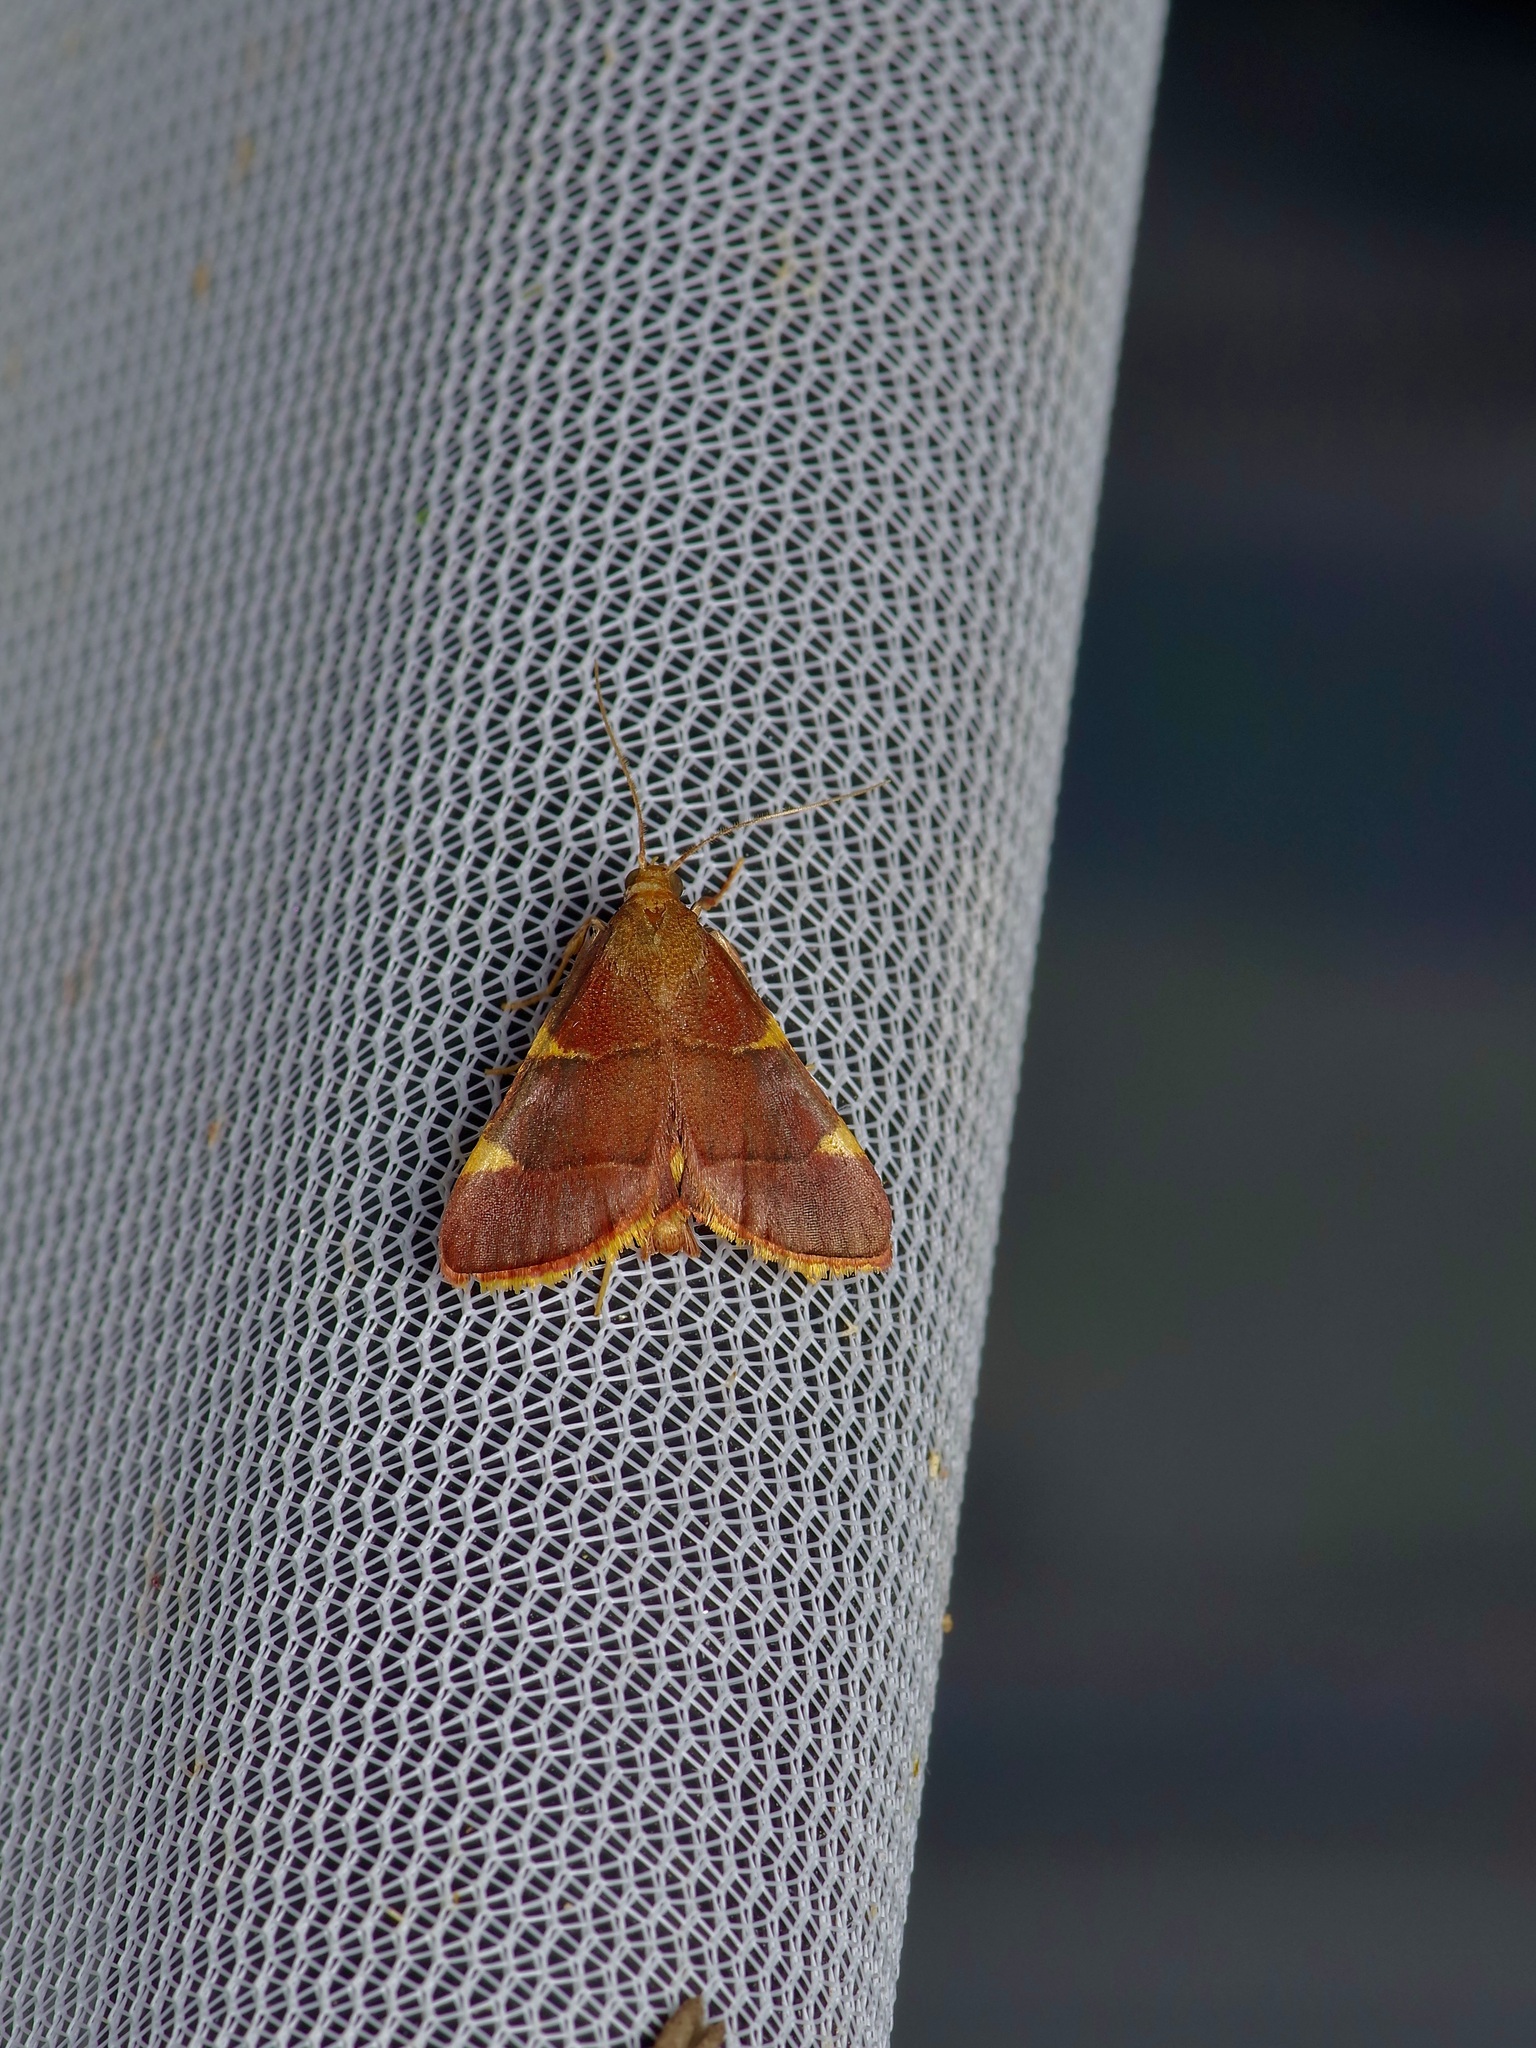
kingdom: Animalia
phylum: Arthropoda
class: Insecta
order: Lepidoptera
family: Pyralidae
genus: Hypsopygia
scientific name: Hypsopygia olinalis
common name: Yellow-fringed dolichomia moth
